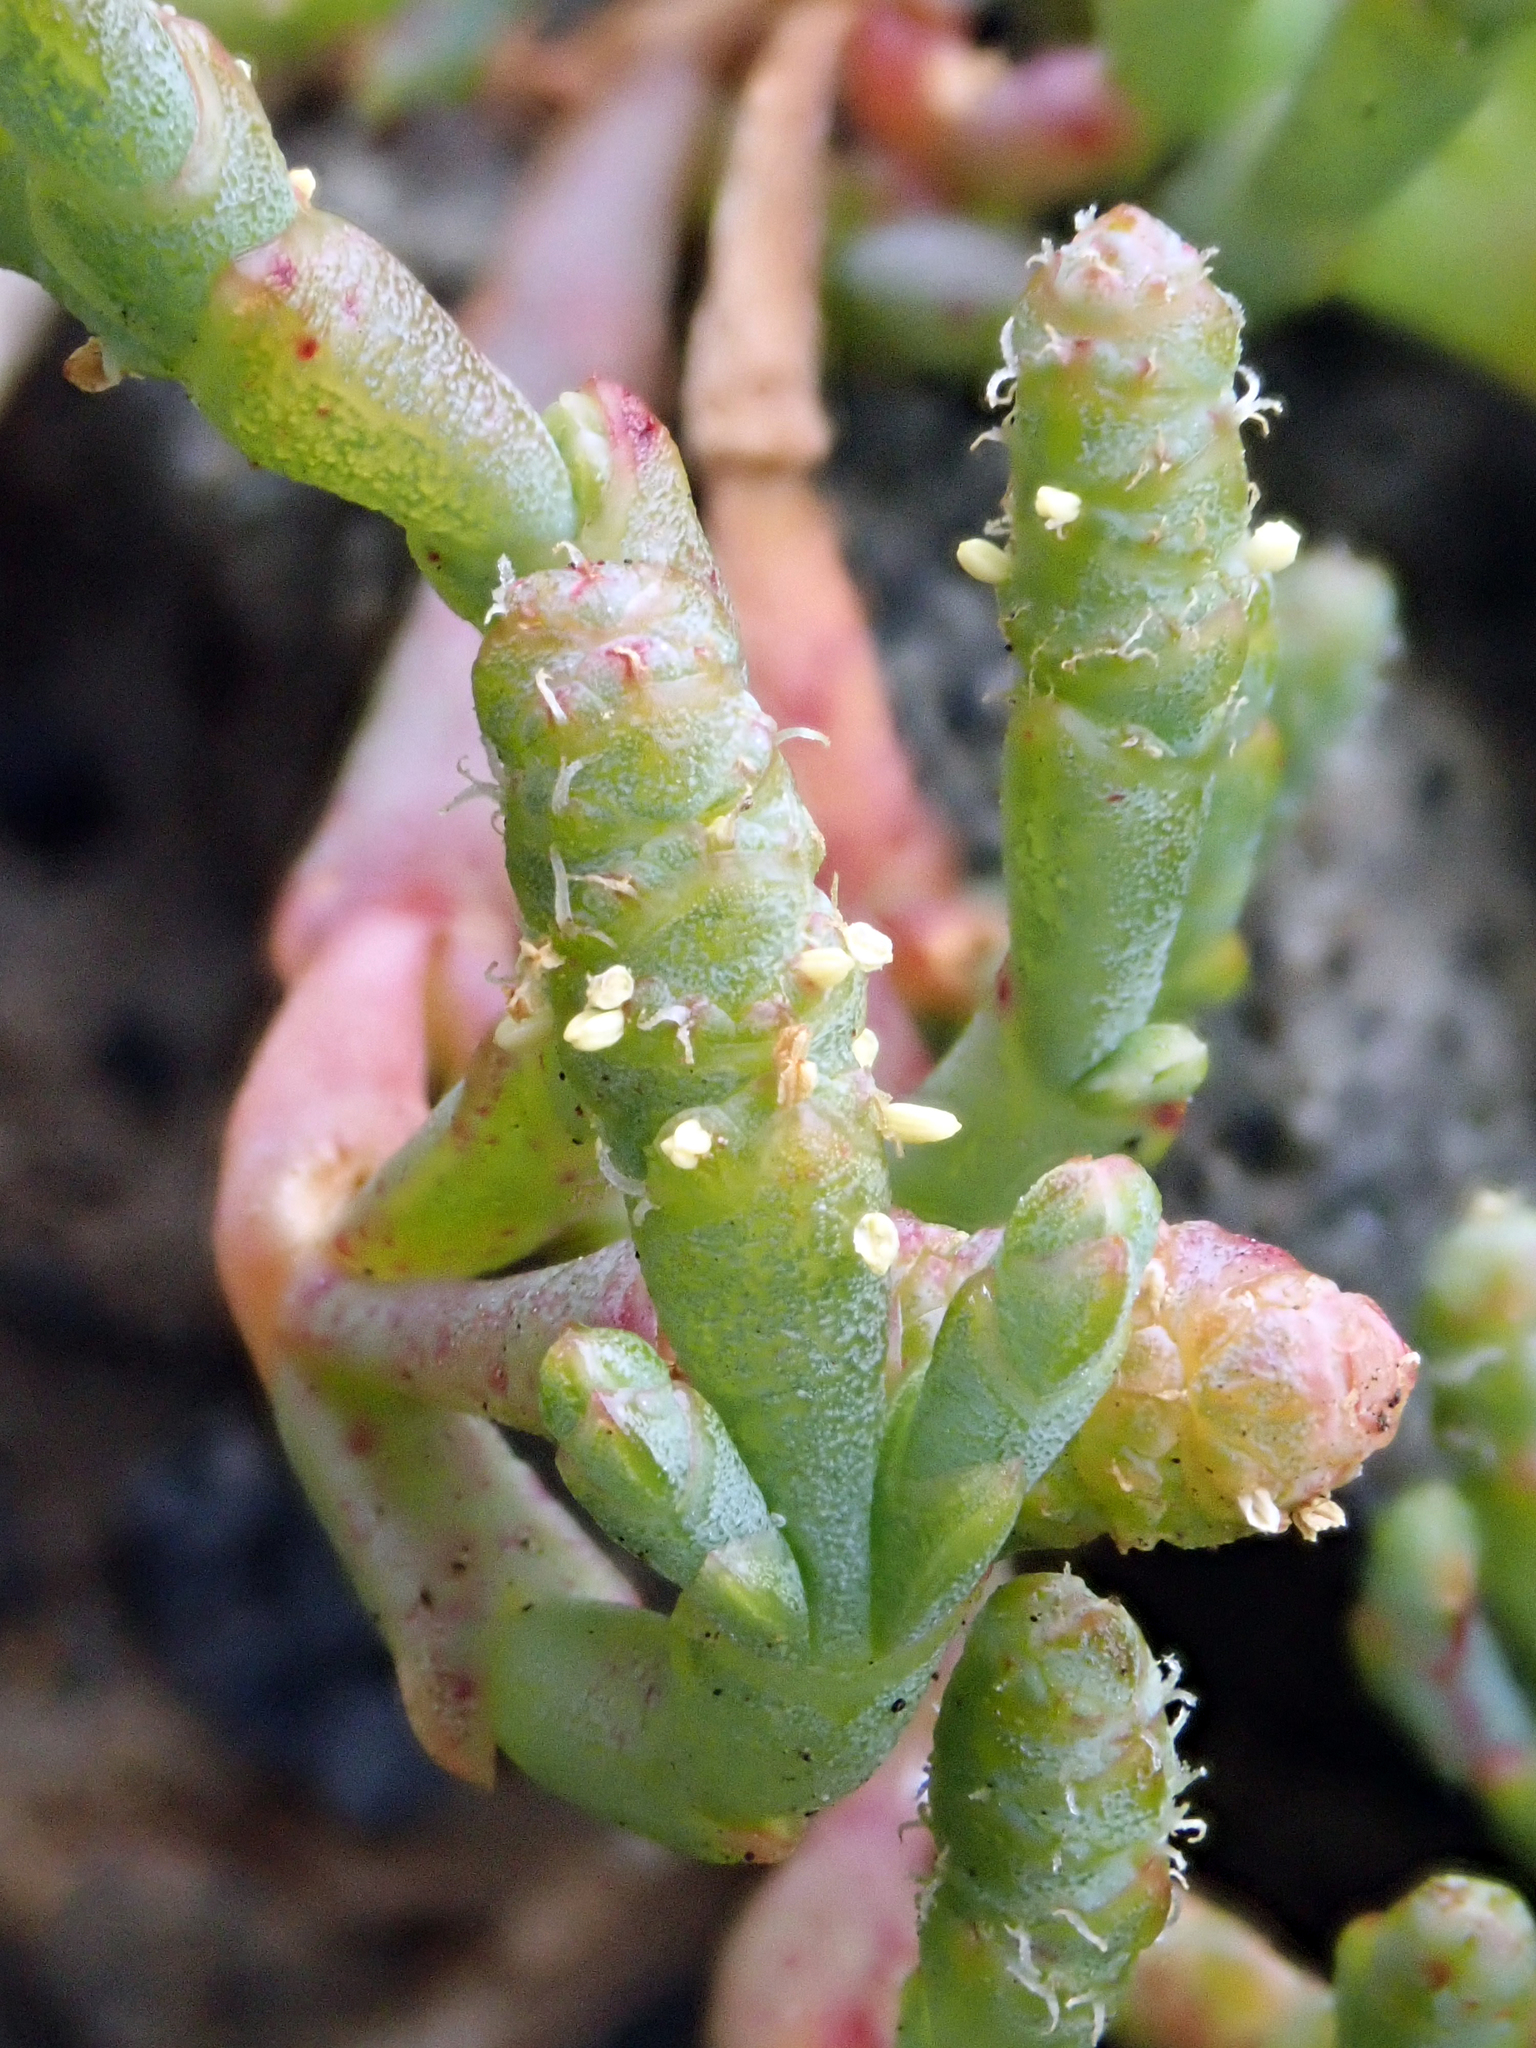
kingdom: Plantae
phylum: Tracheophyta
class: Magnoliopsida
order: Caryophyllales
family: Amaranthaceae
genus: Salicornia
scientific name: Salicornia quinqueflora
